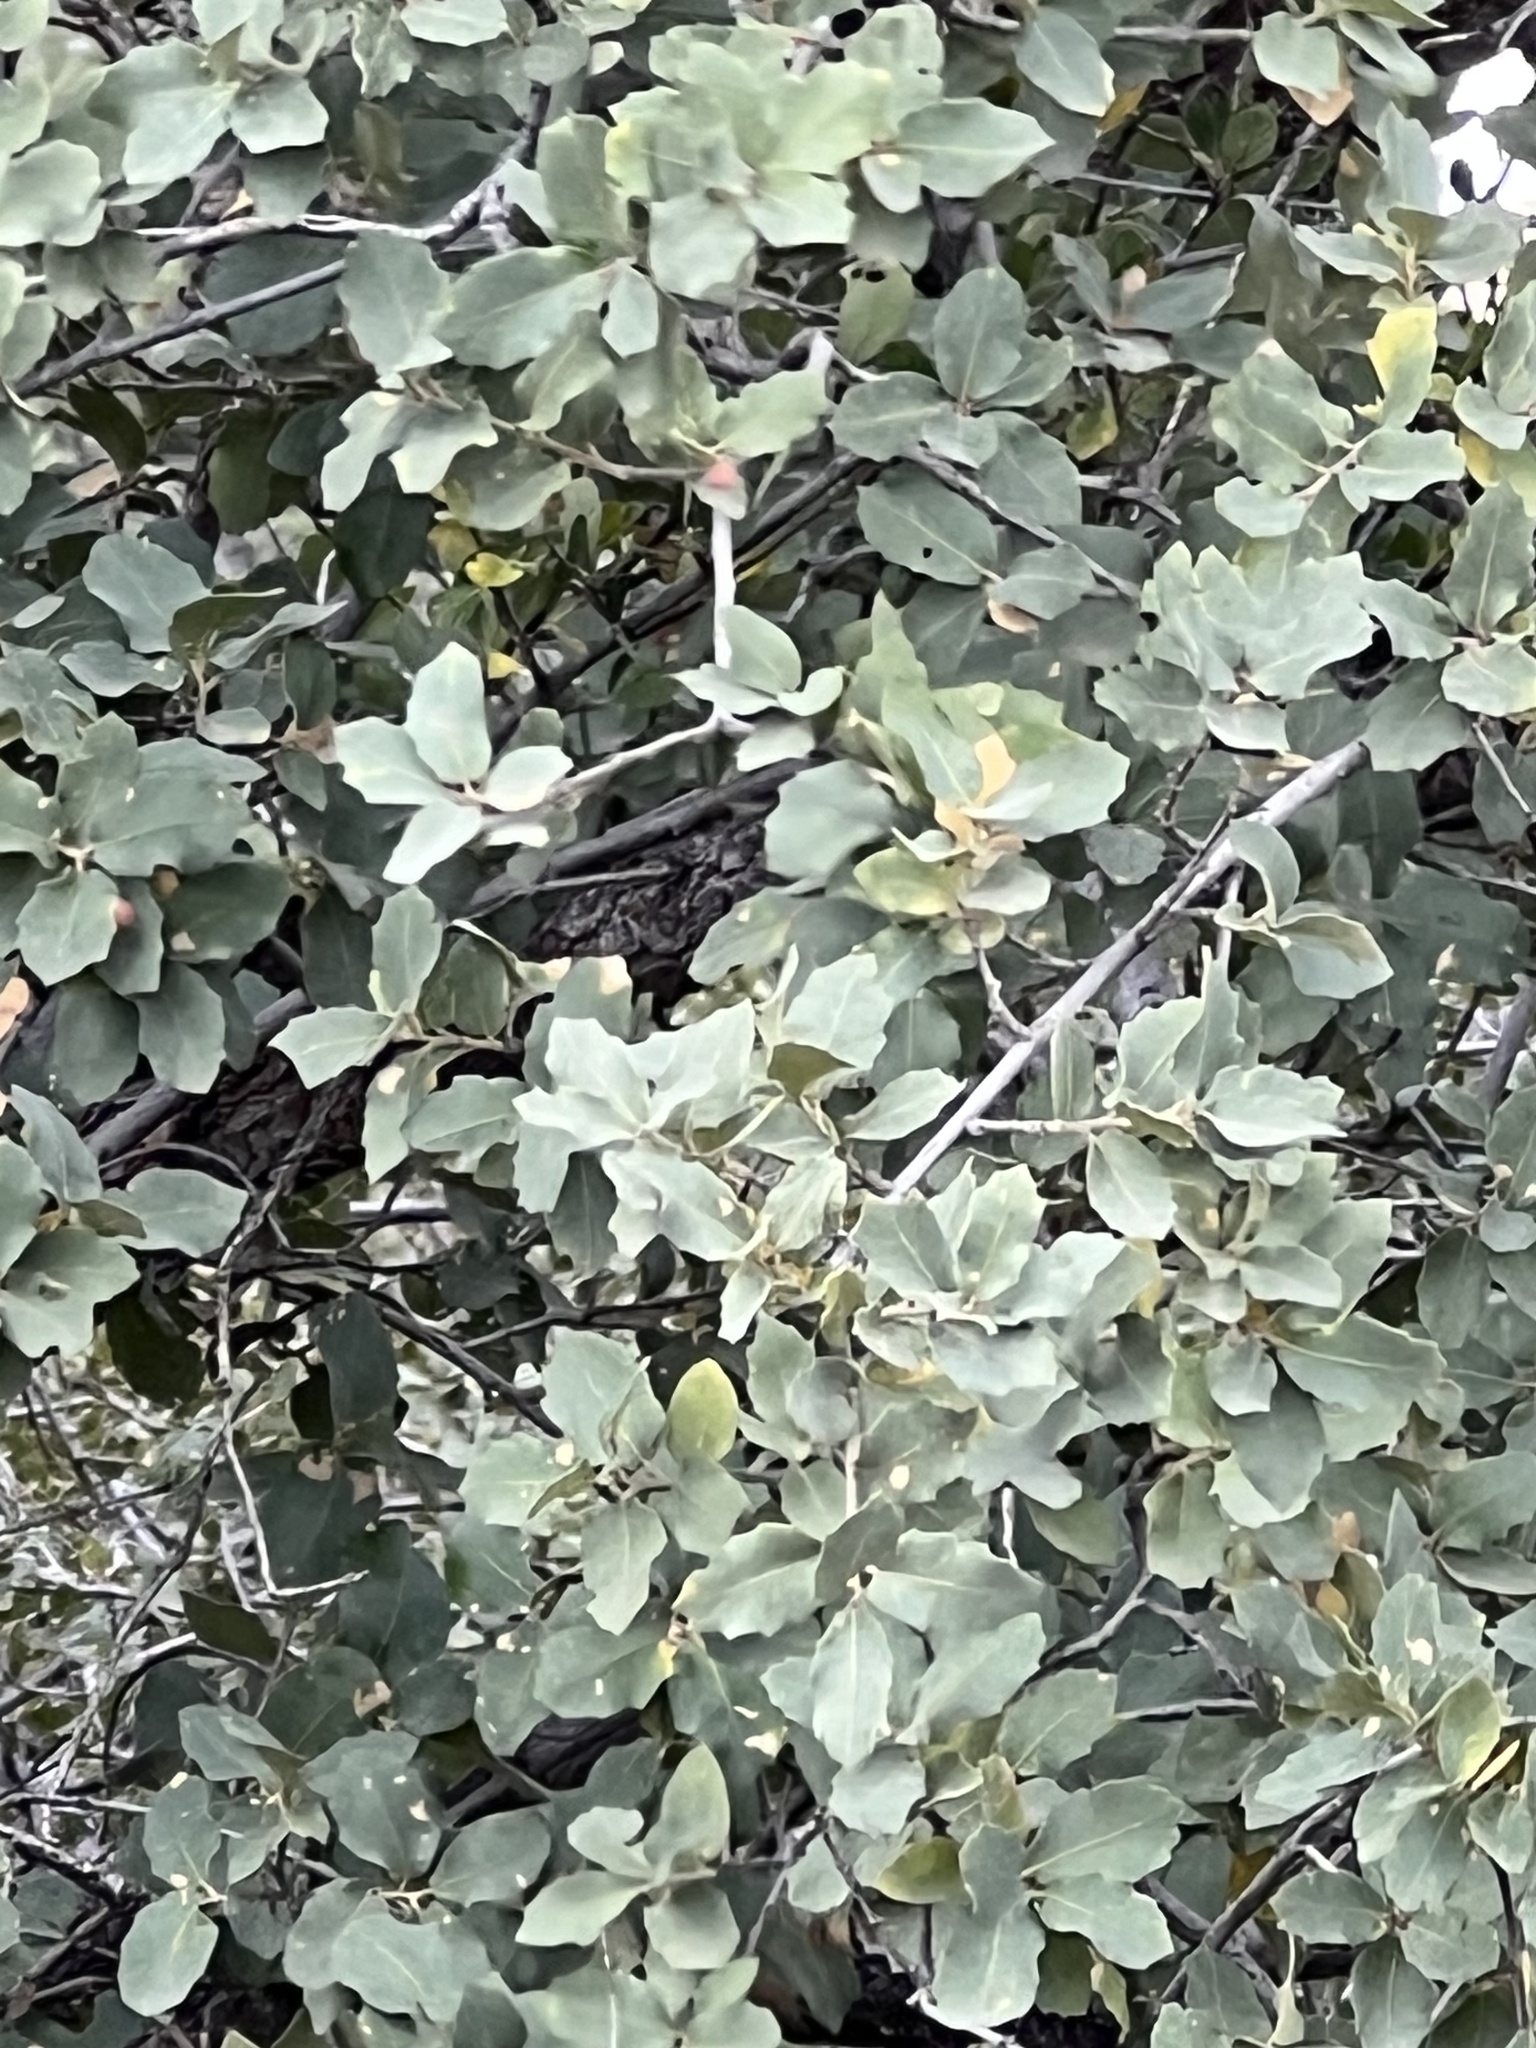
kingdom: Plantae
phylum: Tracheophyta
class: Magnoliopsida
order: Fagales
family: Fagaceae
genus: Quercus
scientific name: Quercus turbinella
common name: Sonoran scrub oak
